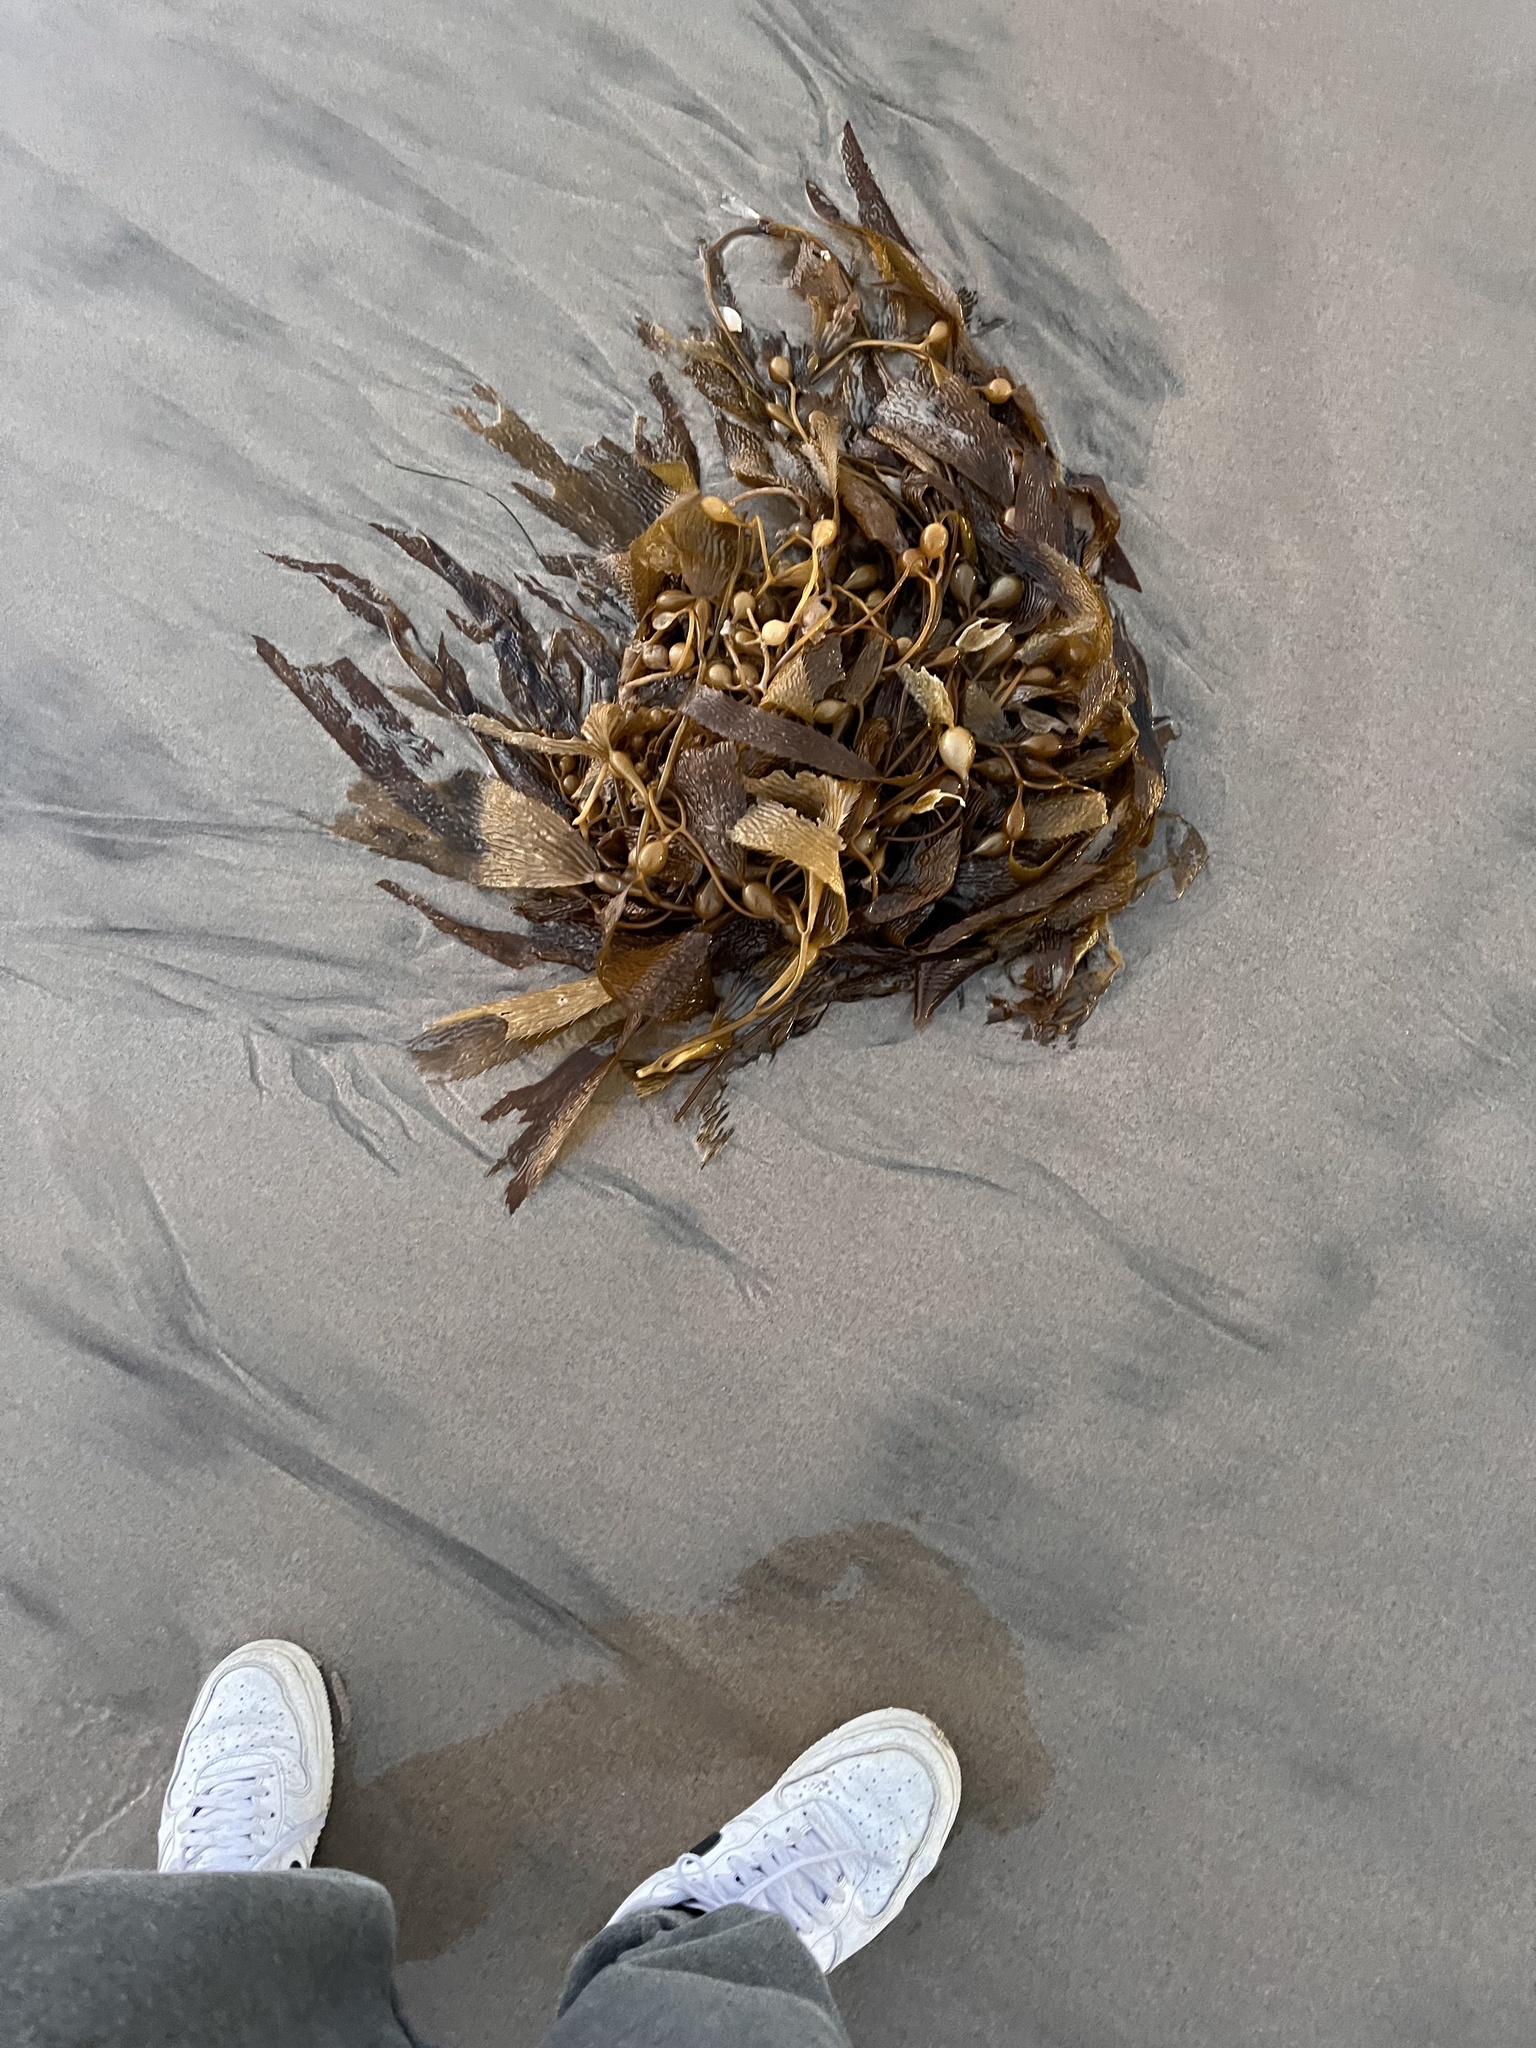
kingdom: Chromista
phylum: Ochrophyta
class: Phaeophyceae
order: Laminariales
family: Laminariaceae
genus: Macrocystis
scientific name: Macrocystis pyrifera
